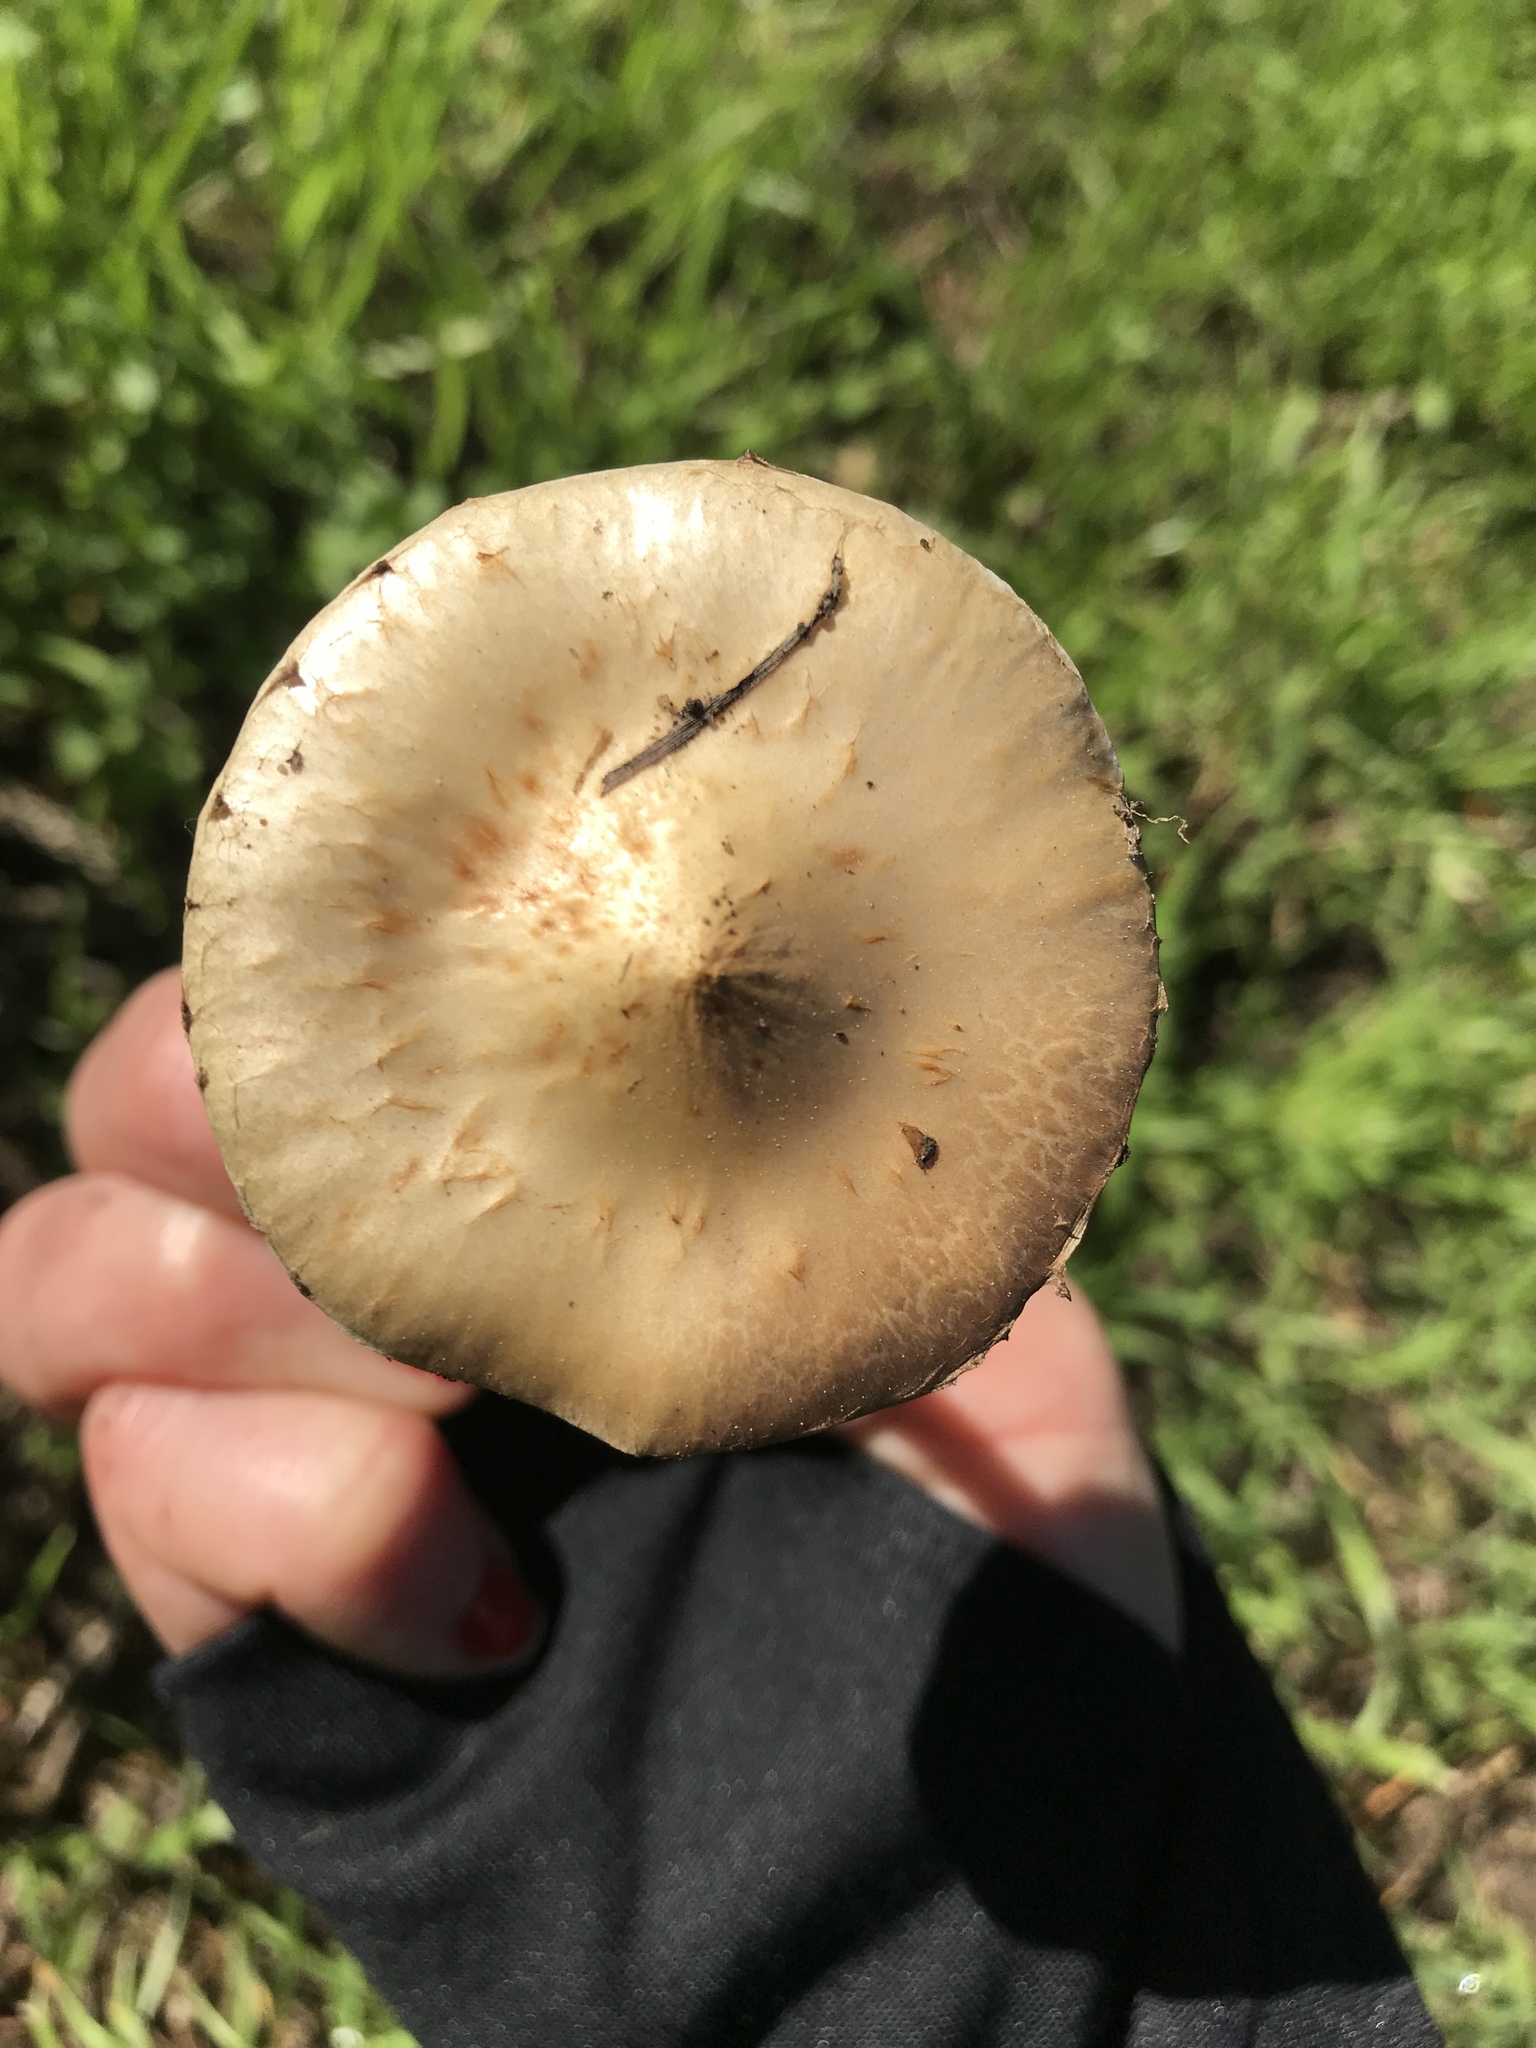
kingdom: Fungi
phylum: Basidiomycota
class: Agaricomycetes
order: Agaricales
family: Strophariaceae
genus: Leratiomyces
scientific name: Leratiomyces percevalii
